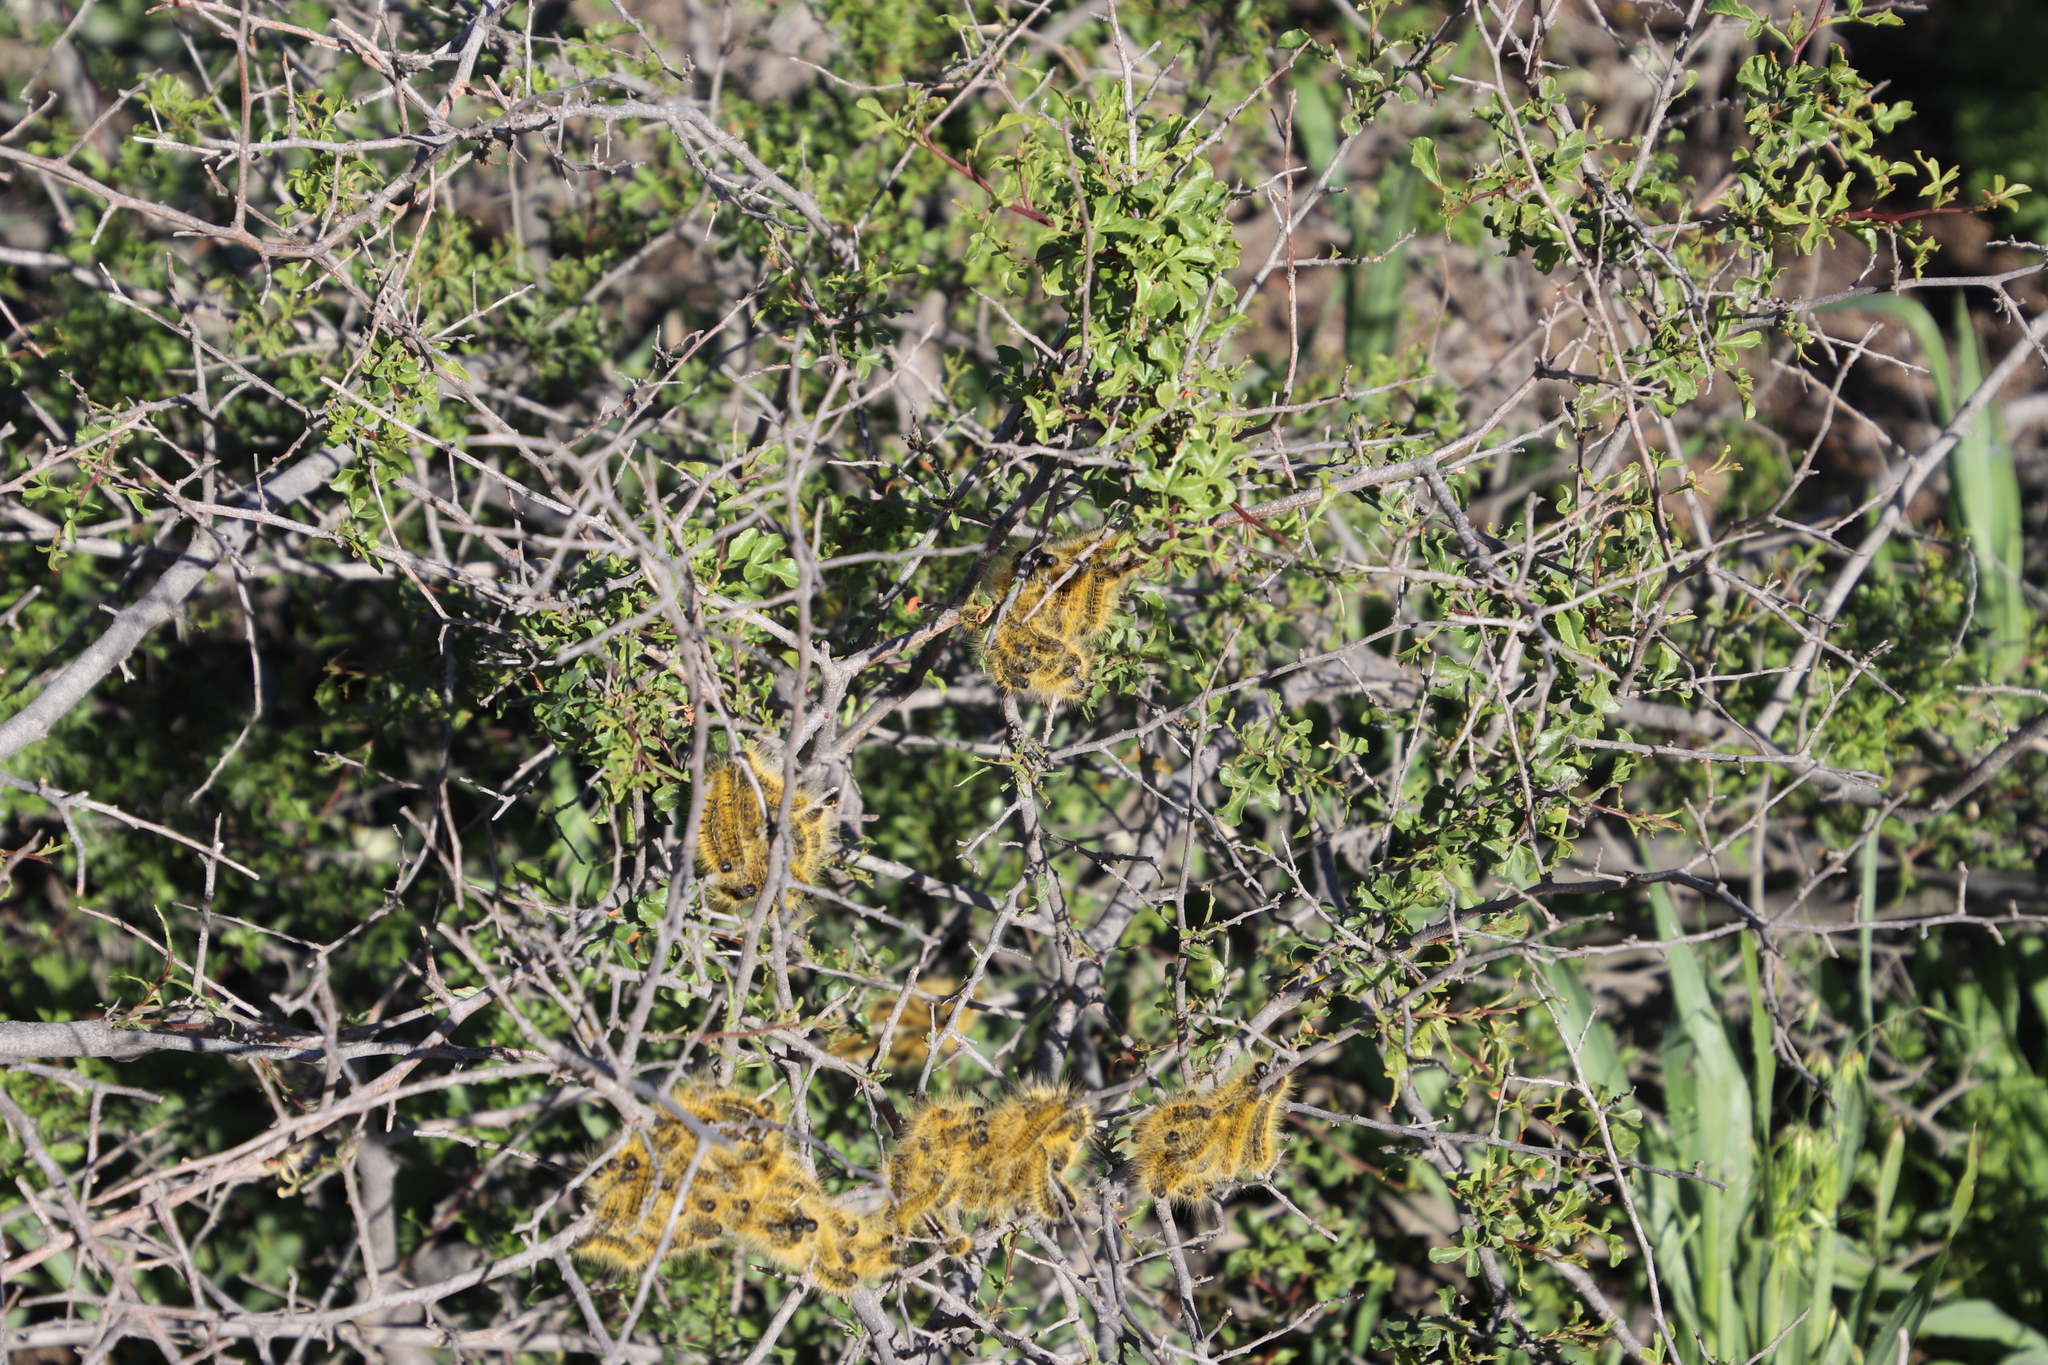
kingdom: Plantae
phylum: Tracheophyta
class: Magnoliopsida
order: Sapindales
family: Anacardiaceae
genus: Searsia
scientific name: Searsia undulata
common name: Namaqua kunibush
